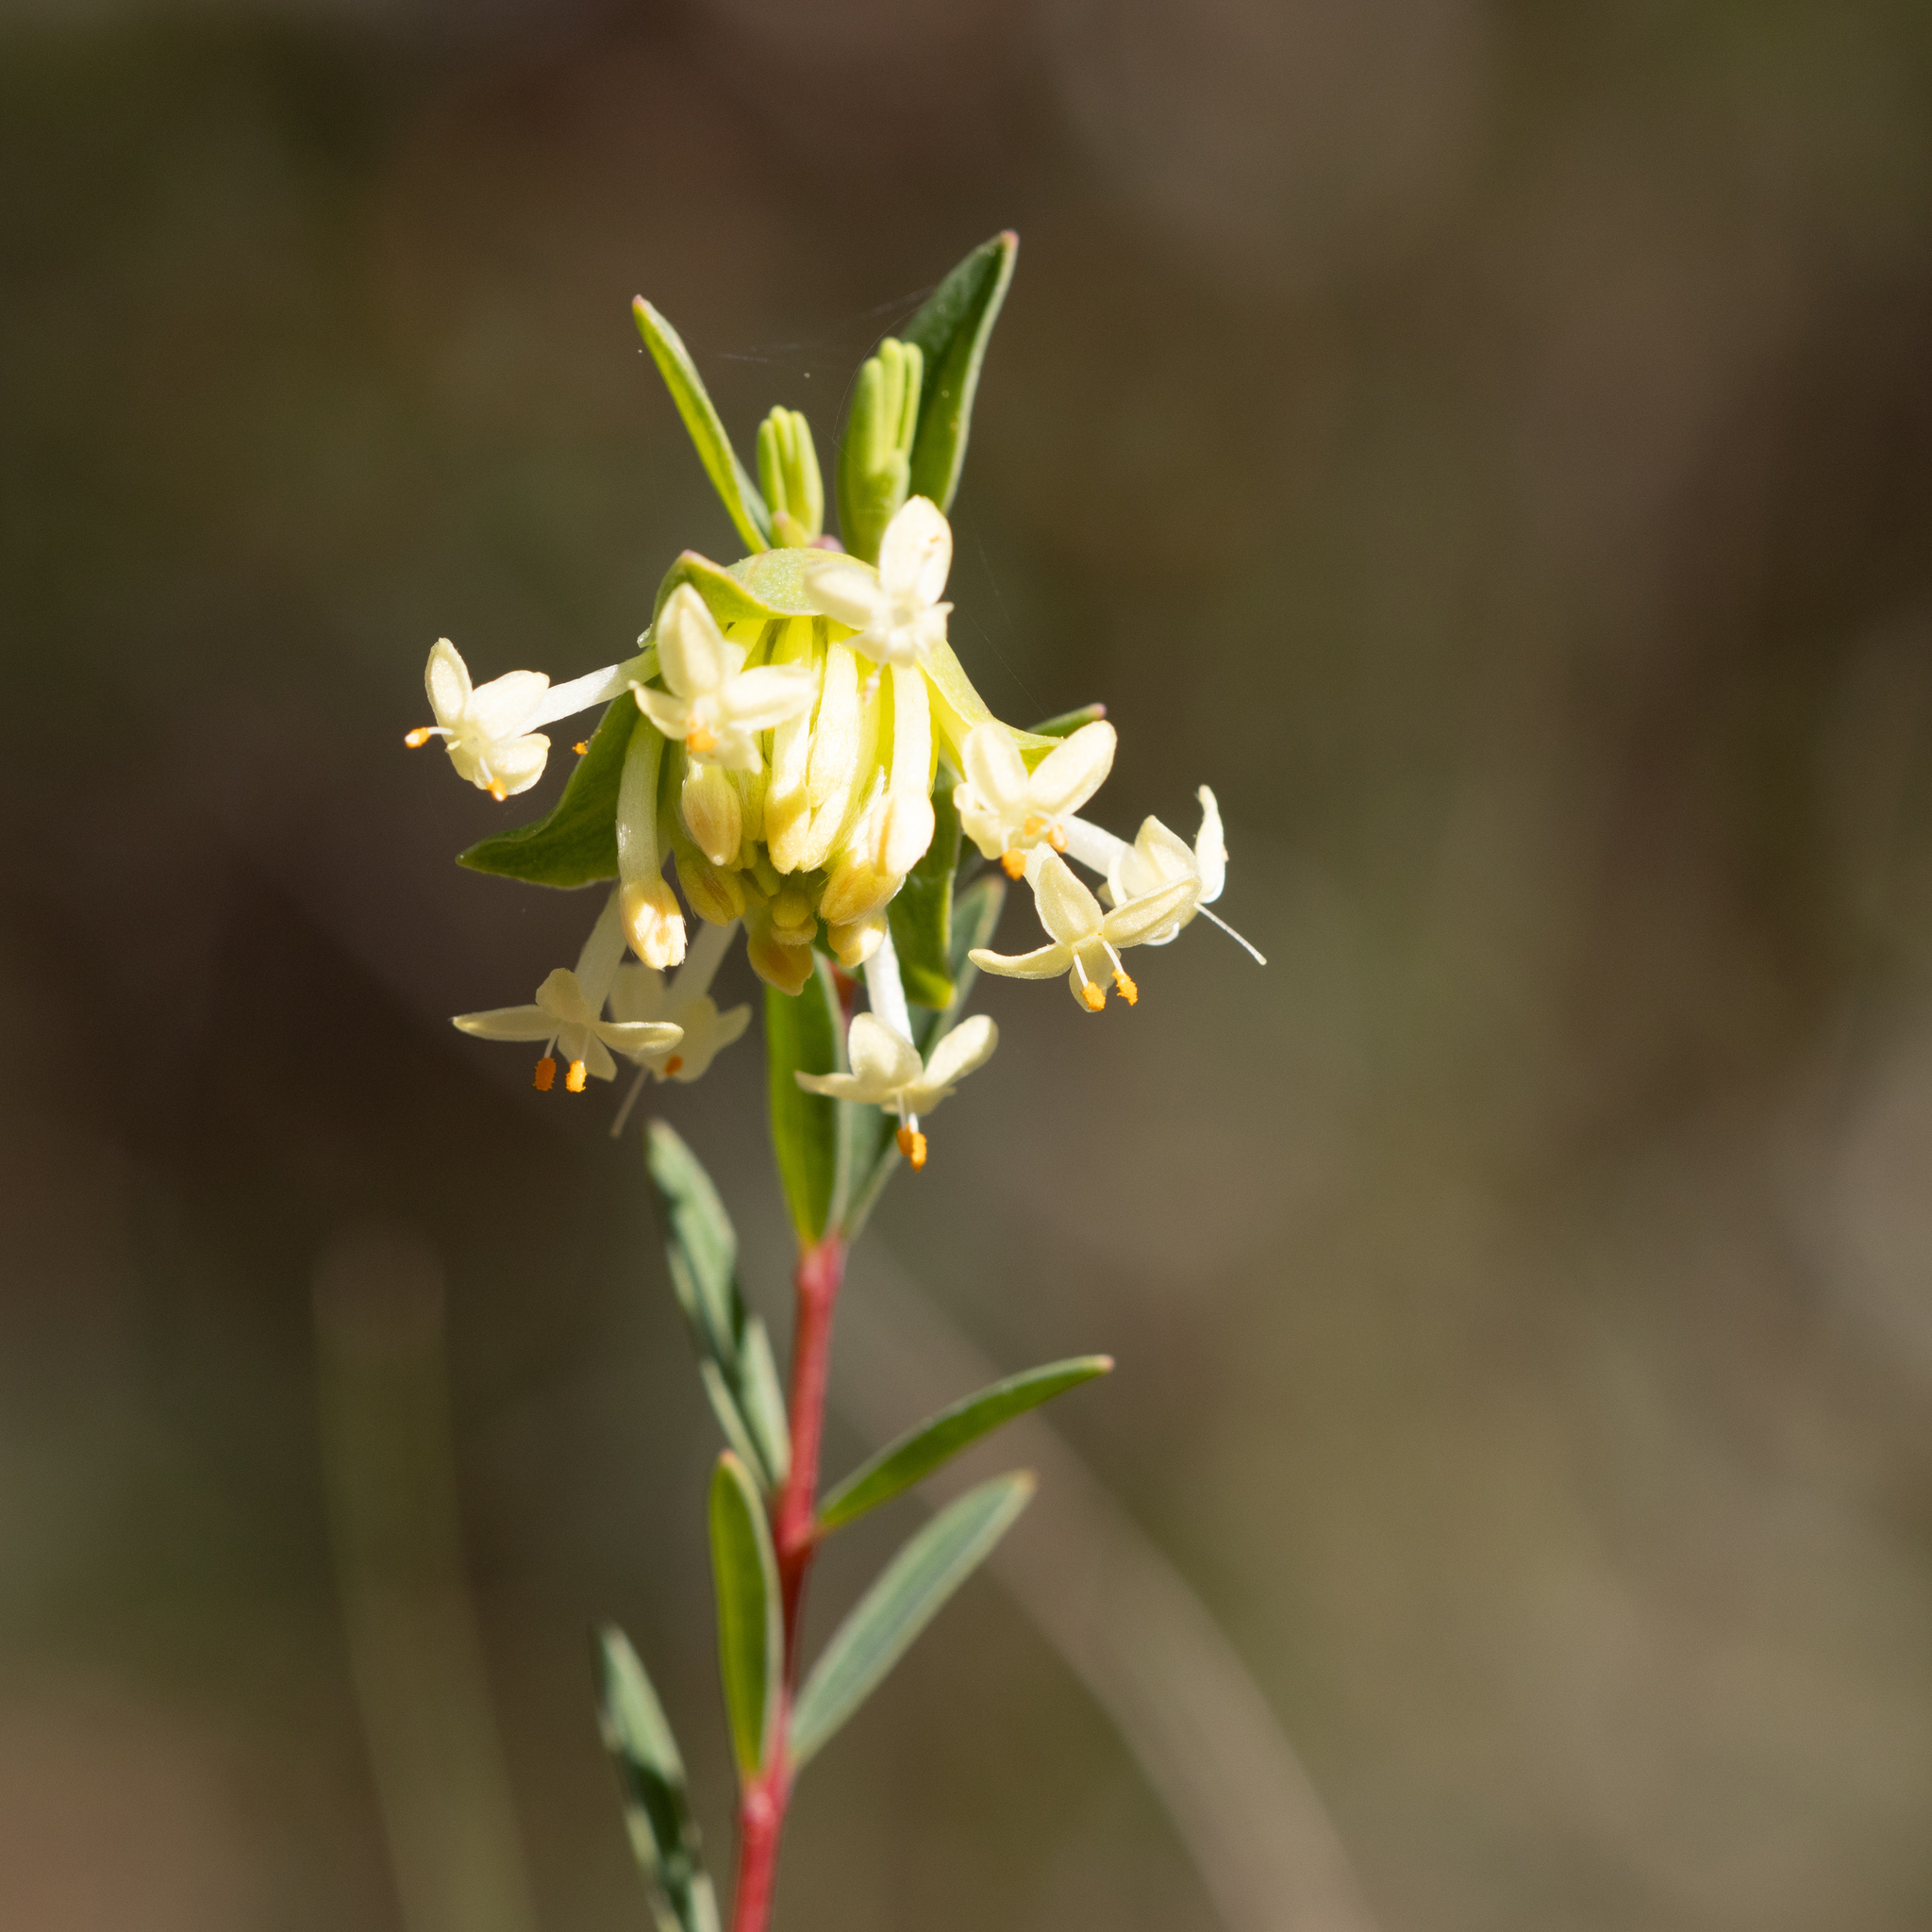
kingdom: Plantae
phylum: Tracheophyta
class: Magnoliopsida
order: Malvales
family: Thymelaeaceae
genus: Pimelea
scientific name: Pimelea linifolia
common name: Queen-of-the-bush
